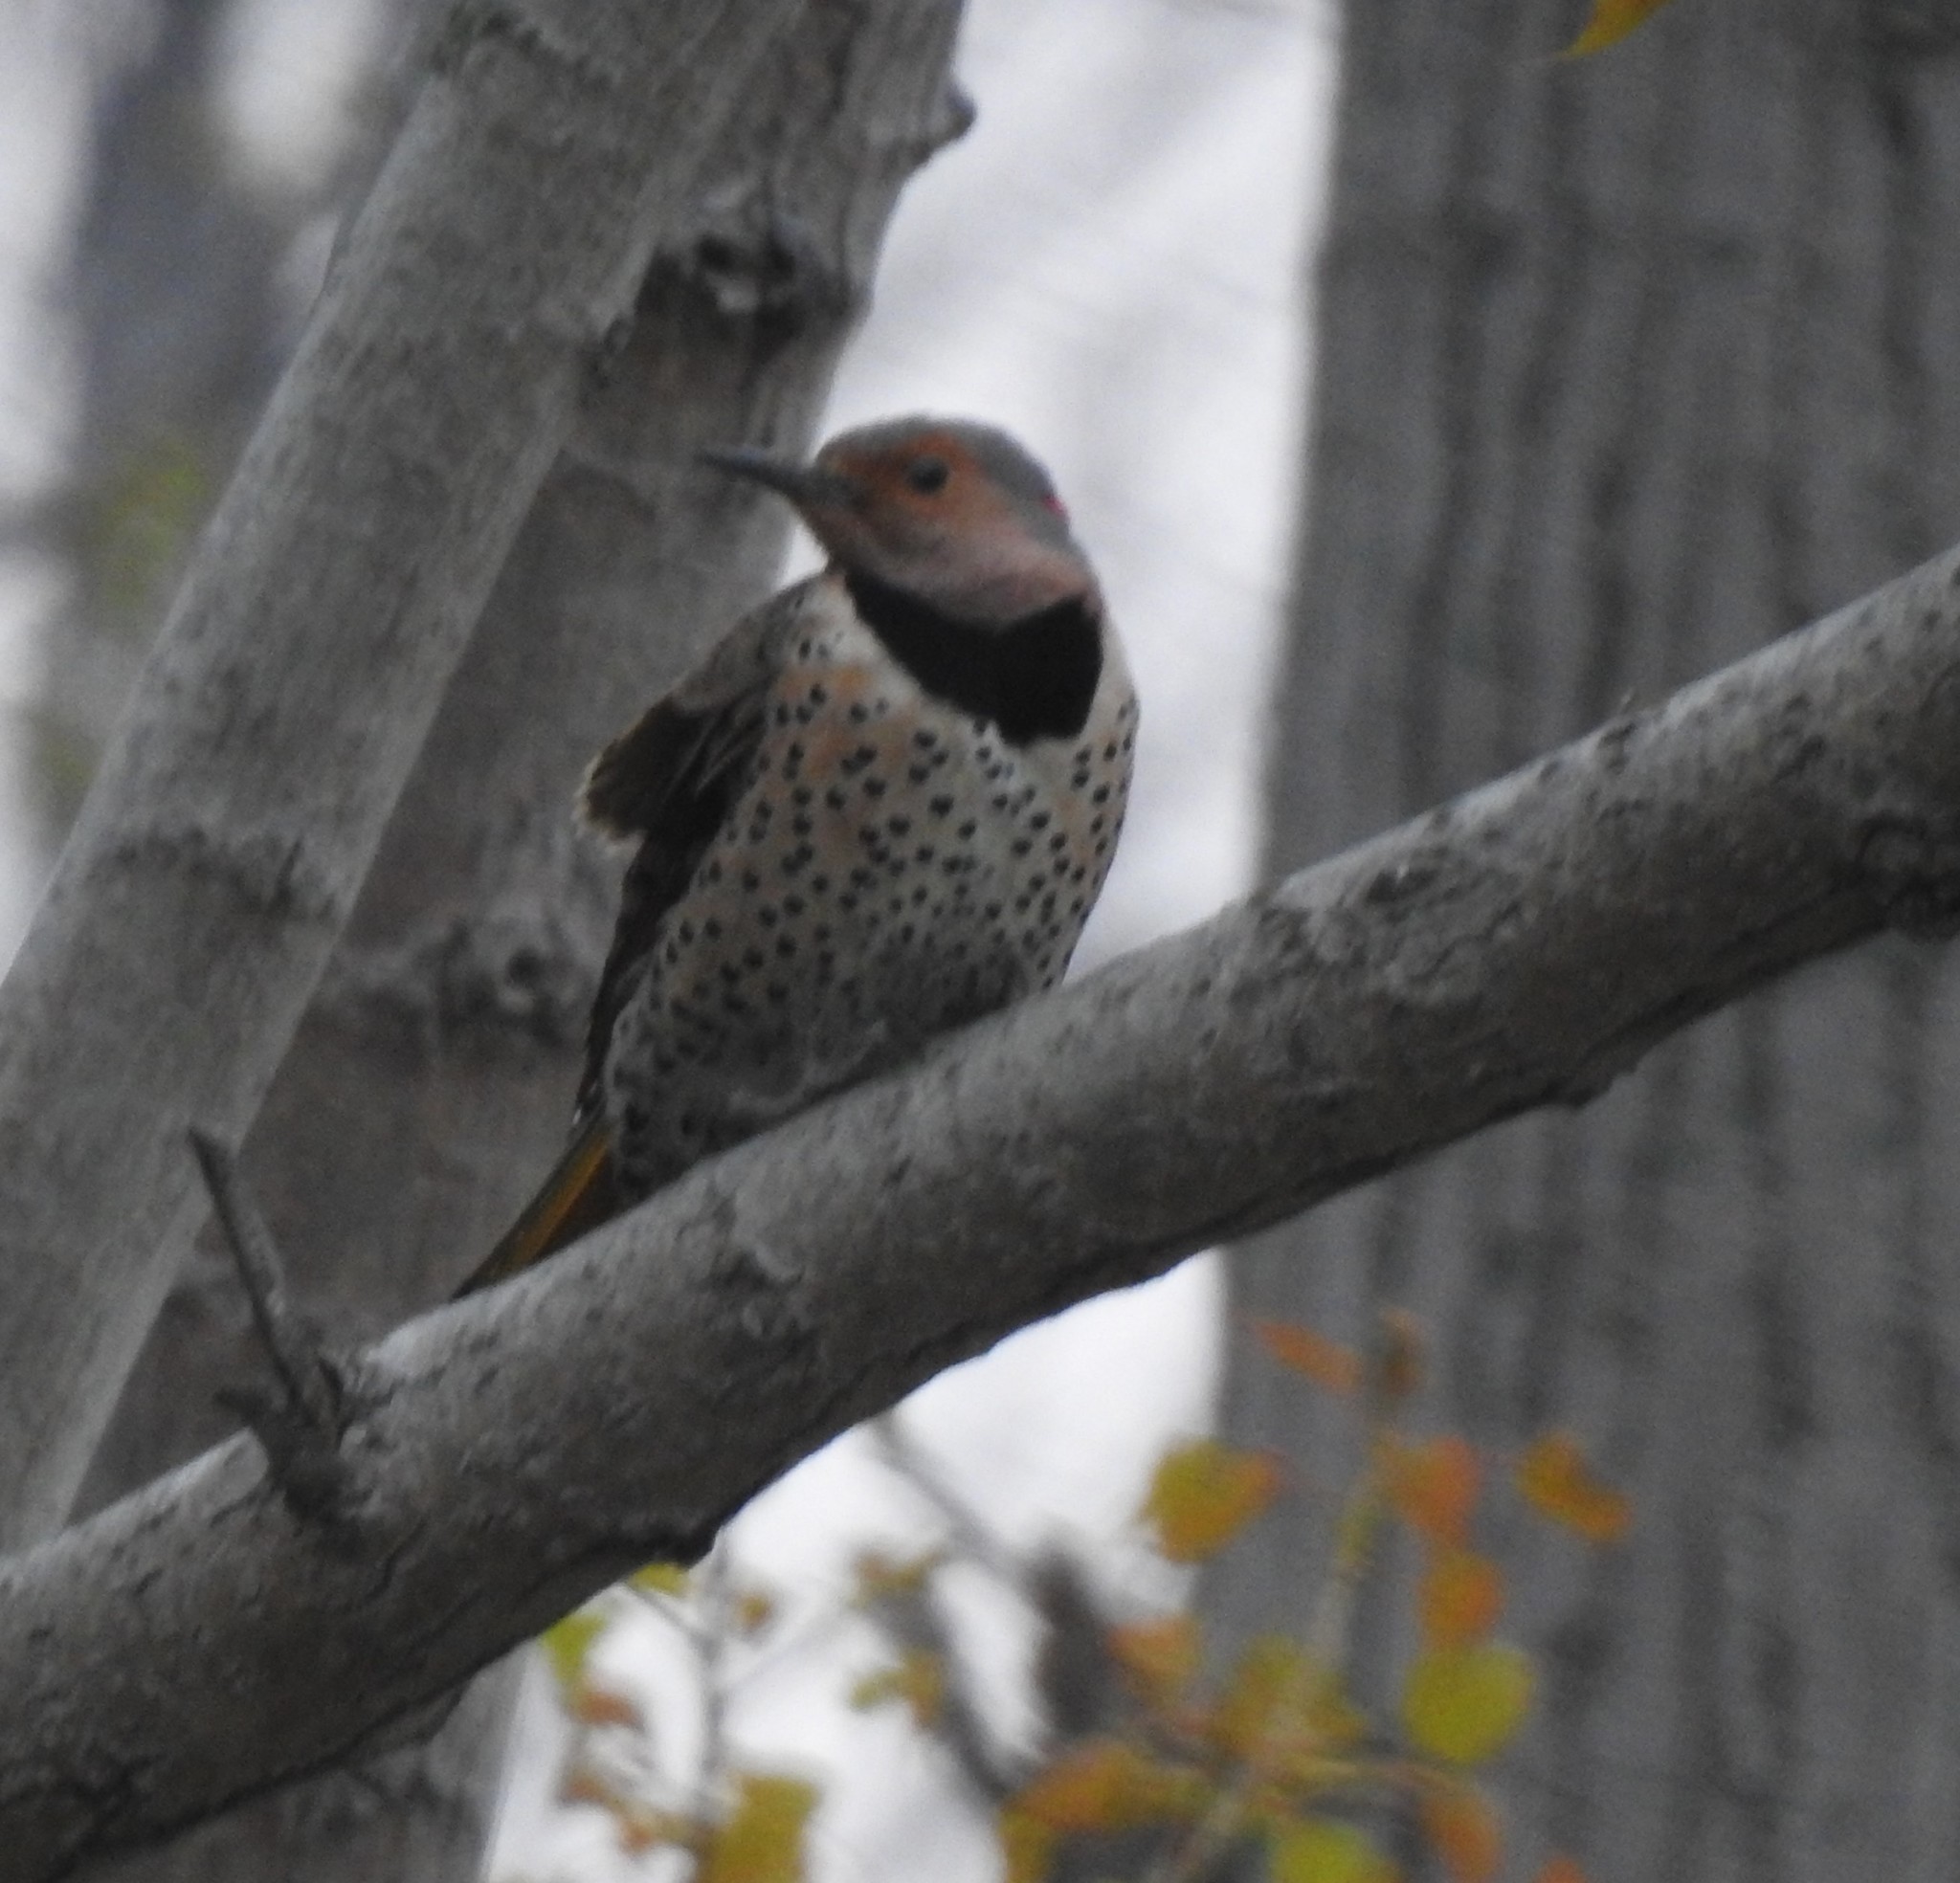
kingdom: Animalia
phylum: Chordata
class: Aves
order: Piciformes
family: Picidae
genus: Colaptes
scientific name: Colaptes auratus
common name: Northern flicker
